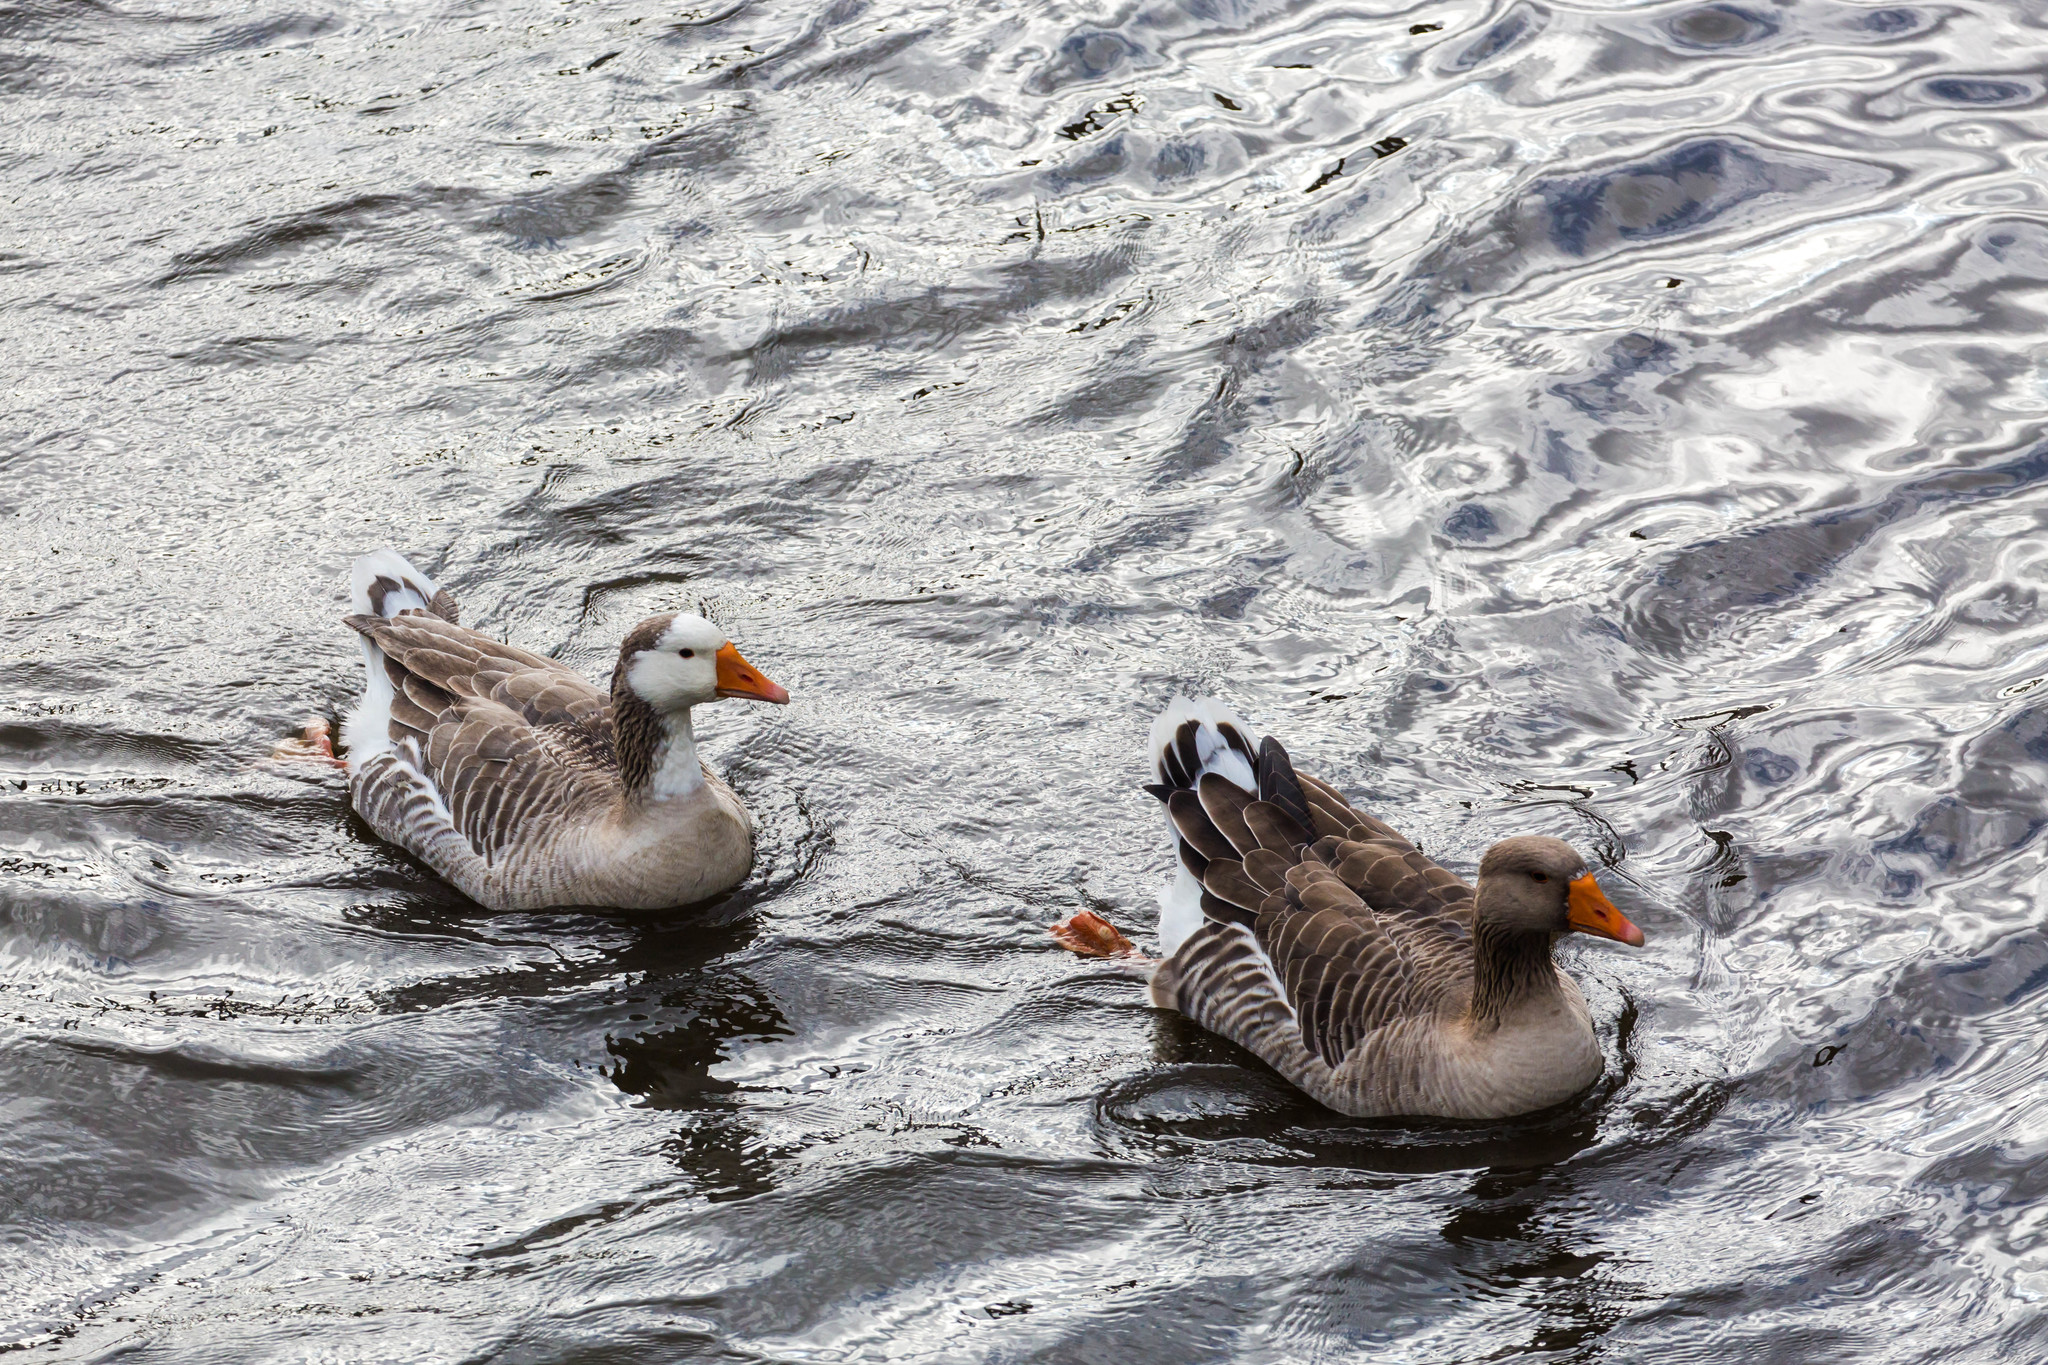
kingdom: Animalia
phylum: Chordata
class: Aves
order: Anseriformes
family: Anatidae
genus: Anser
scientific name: Anser anser
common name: Greylag goose
